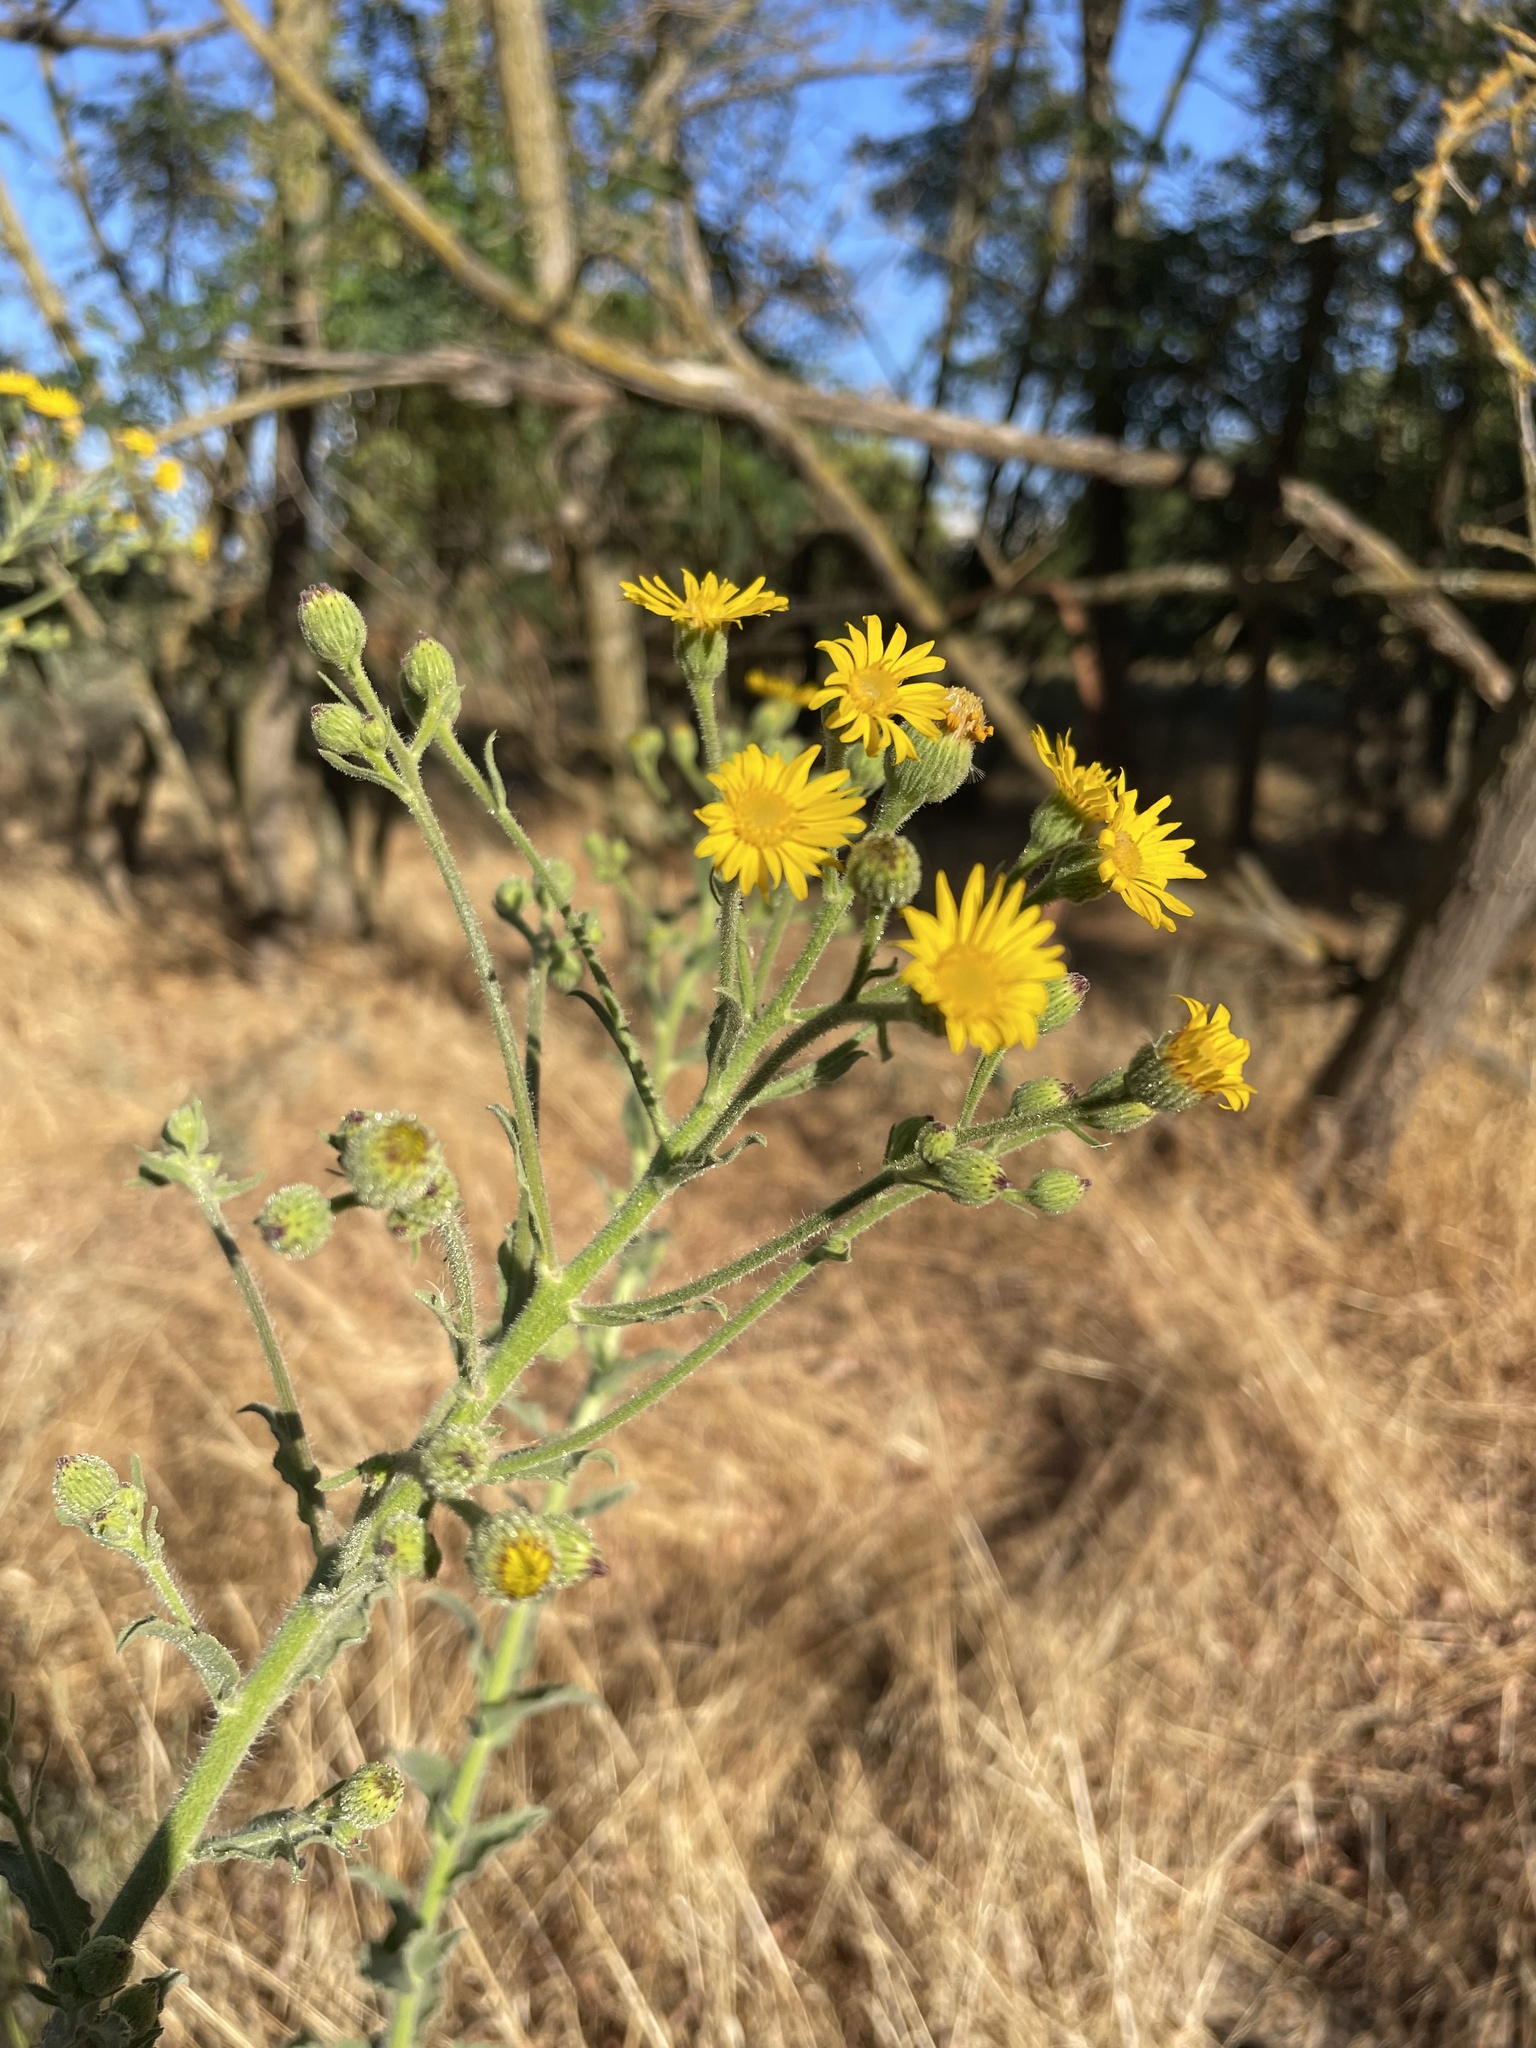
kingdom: Plantae
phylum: Tracheophyta
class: Magnoliopsida
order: Asterales
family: Asteraceae
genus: Heterotheca
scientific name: Heterotheca grandiflora
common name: Telegraphweed
